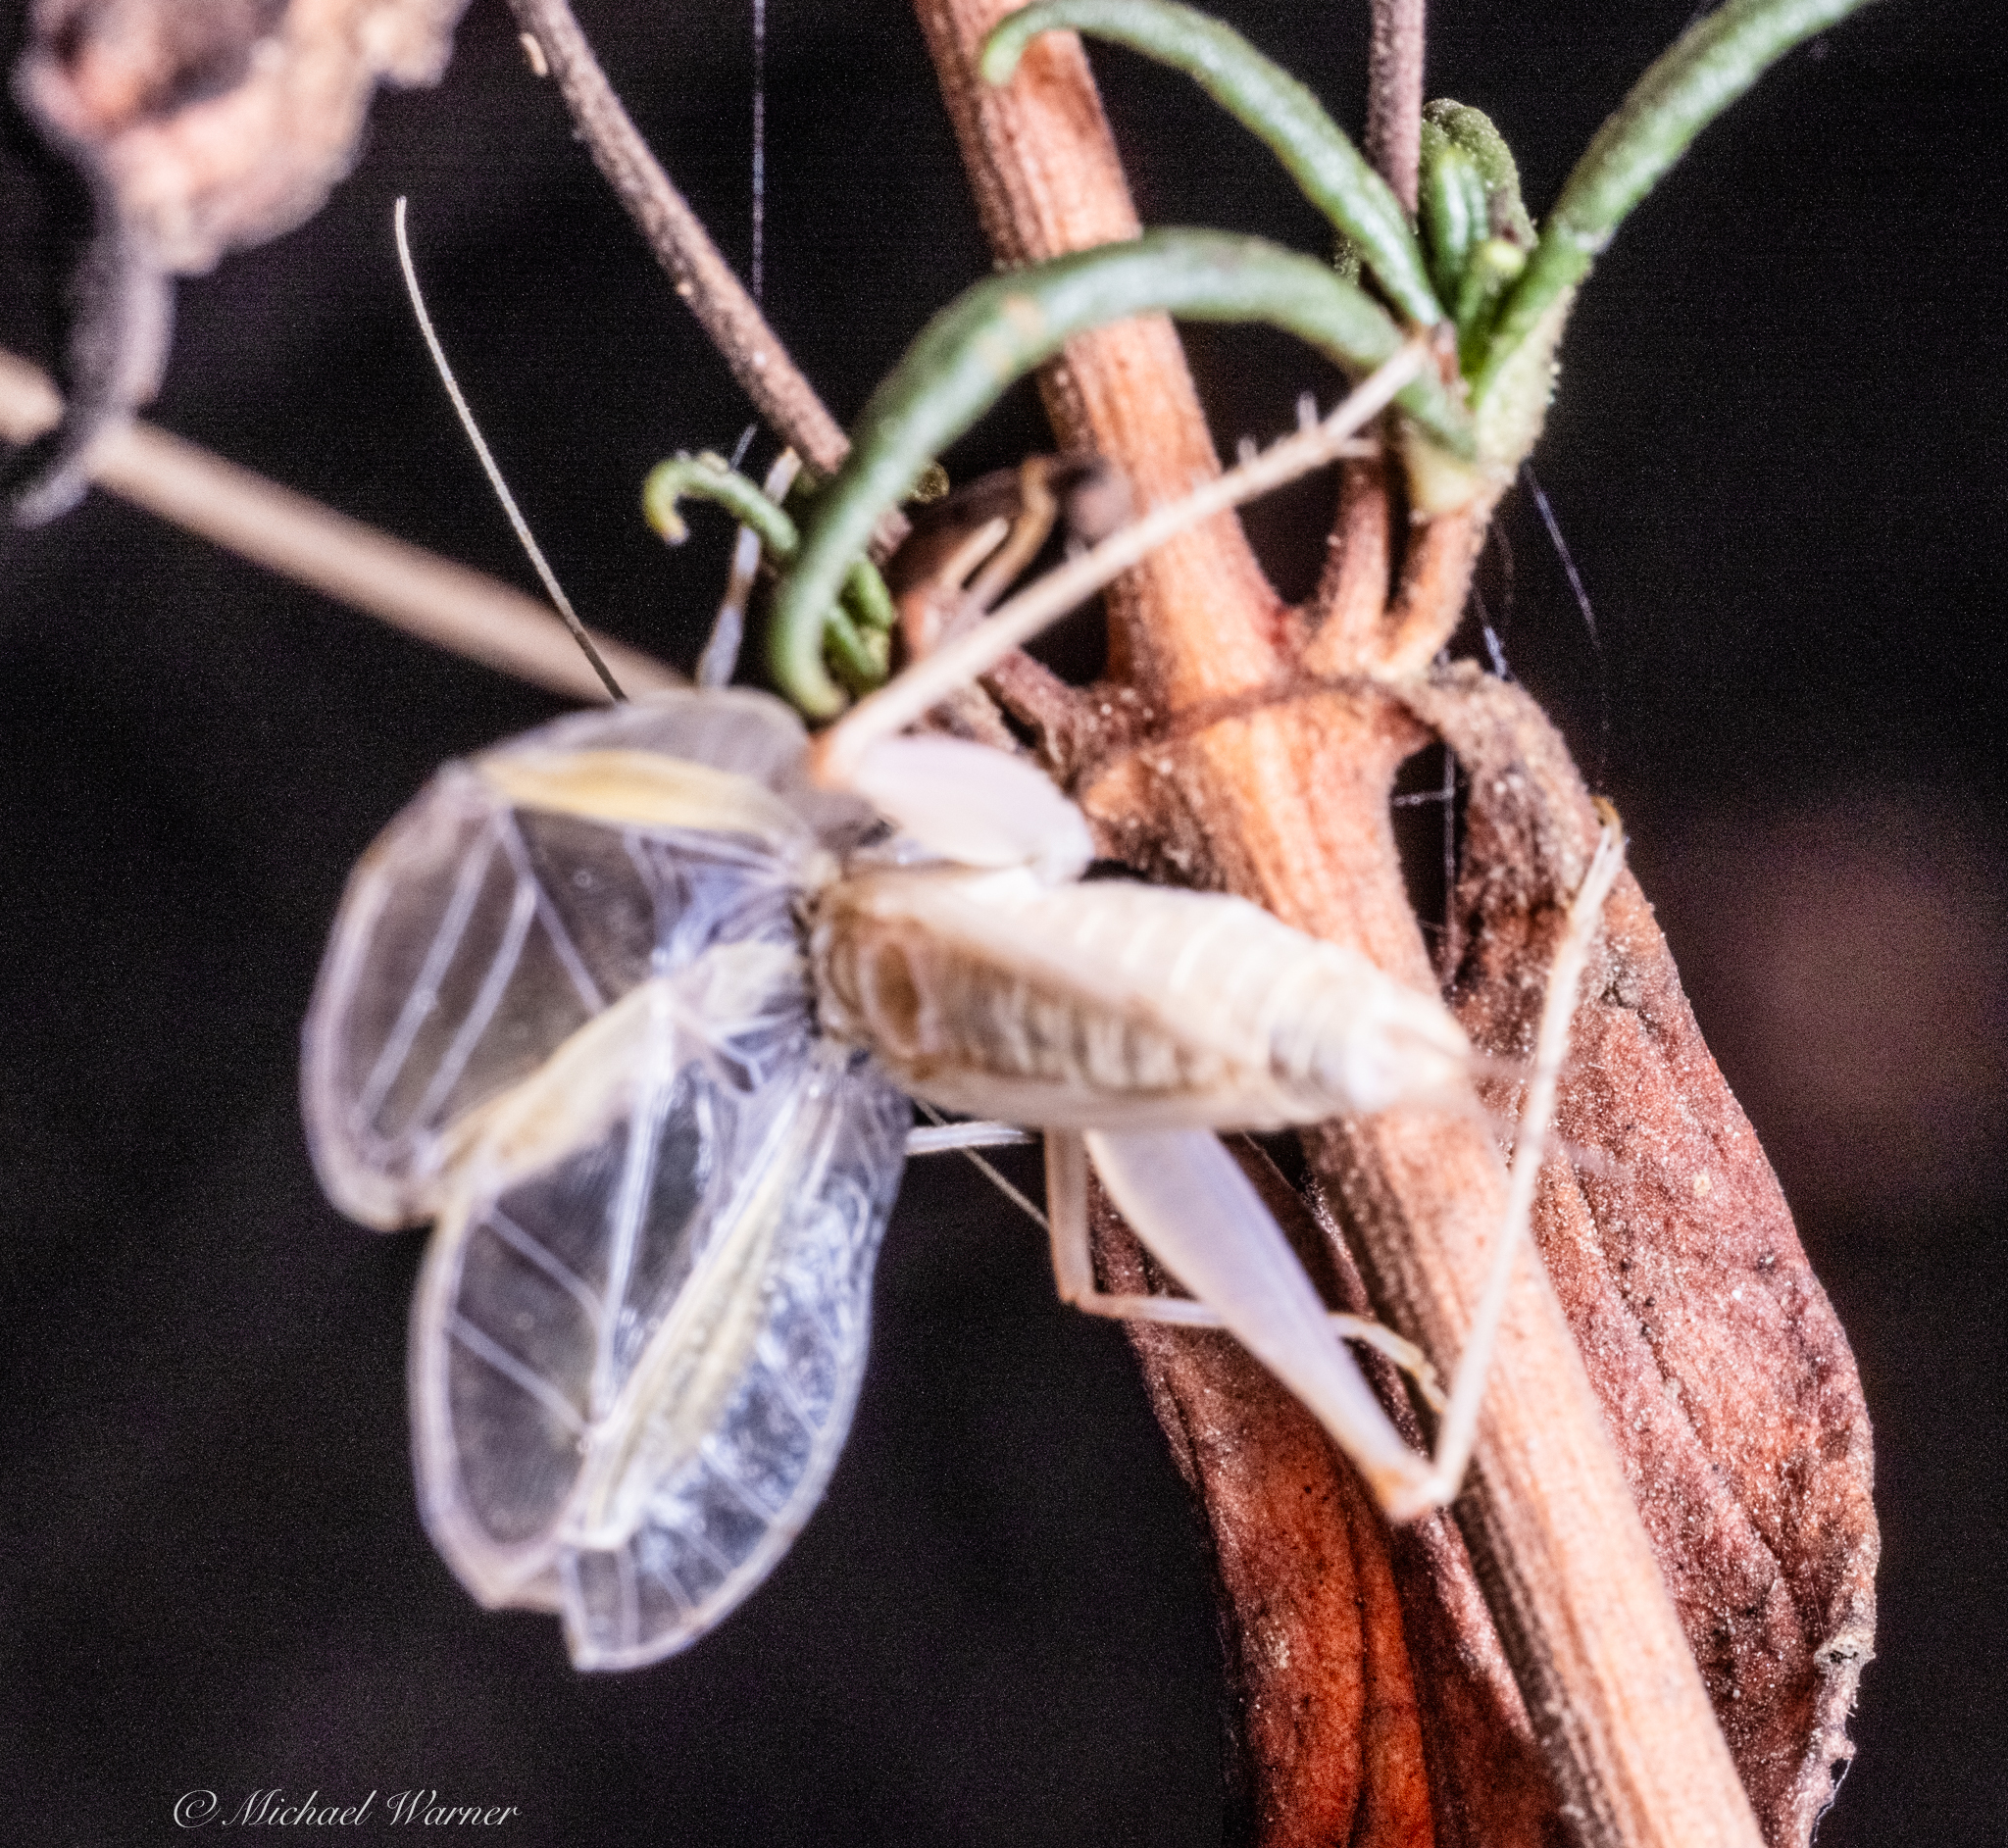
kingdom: Animalia
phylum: Arthropoda
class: Insecta
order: Orthoptera
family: Gryllidae
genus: Oecanthus
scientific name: Oecanthus californicus
